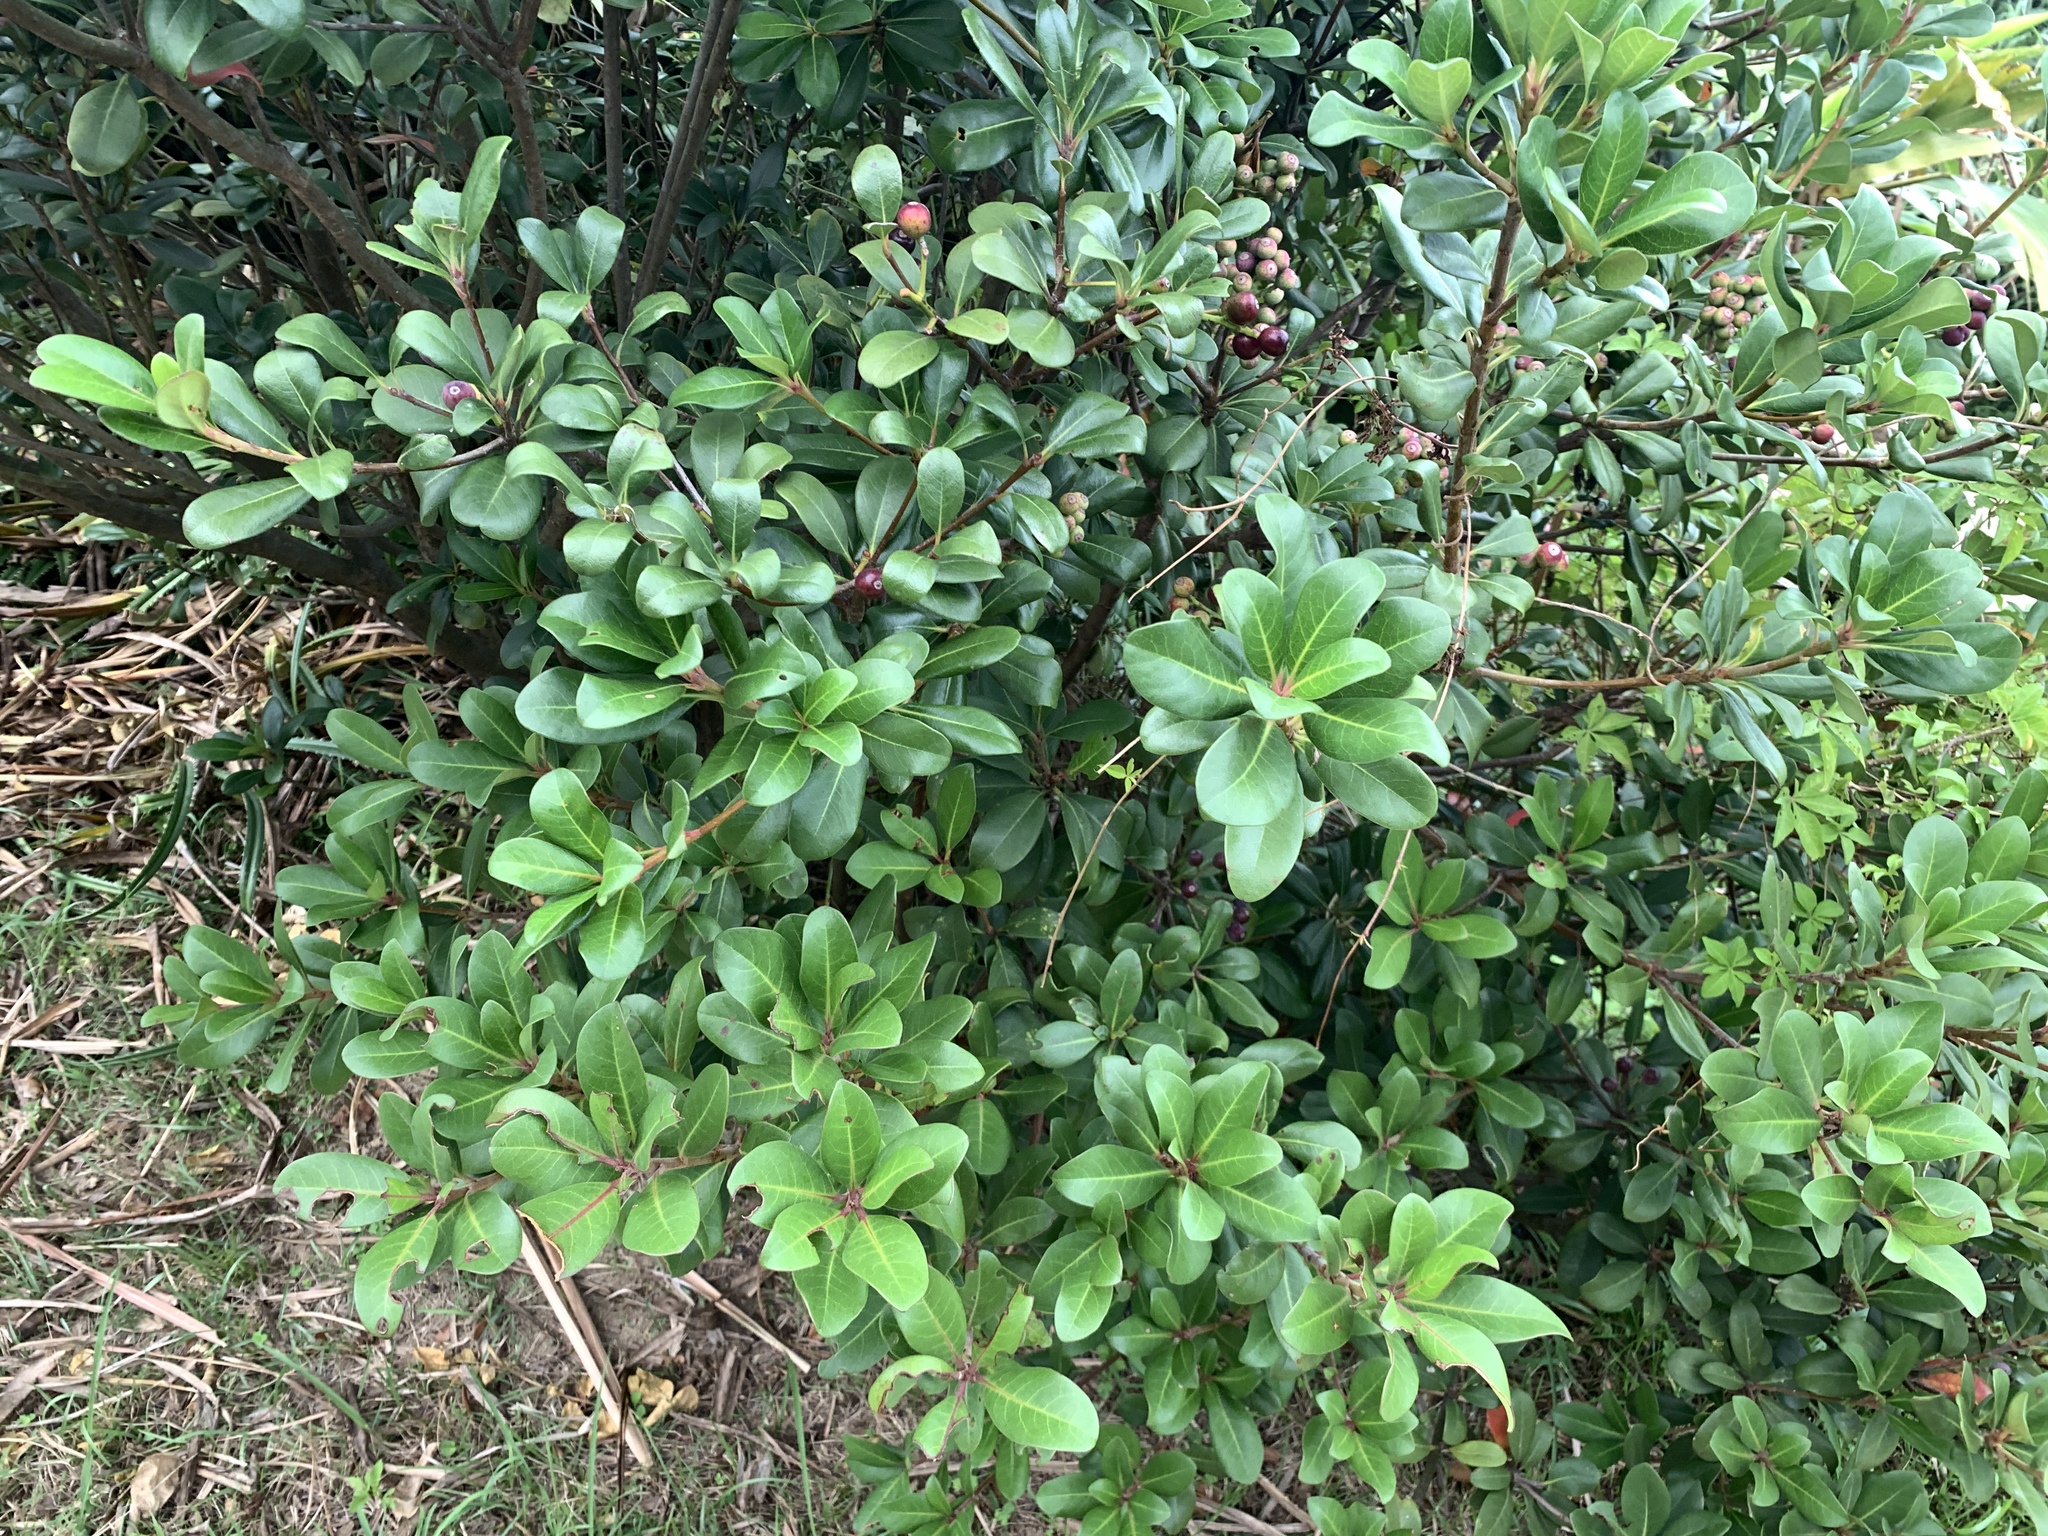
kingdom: Plantae
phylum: Tracheophyta
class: Magnoliopsida
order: Rosales
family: Rosaceae
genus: Rhaphiolepis
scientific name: Rhaphiolepis umbellata
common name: Yedda-hawthorn
